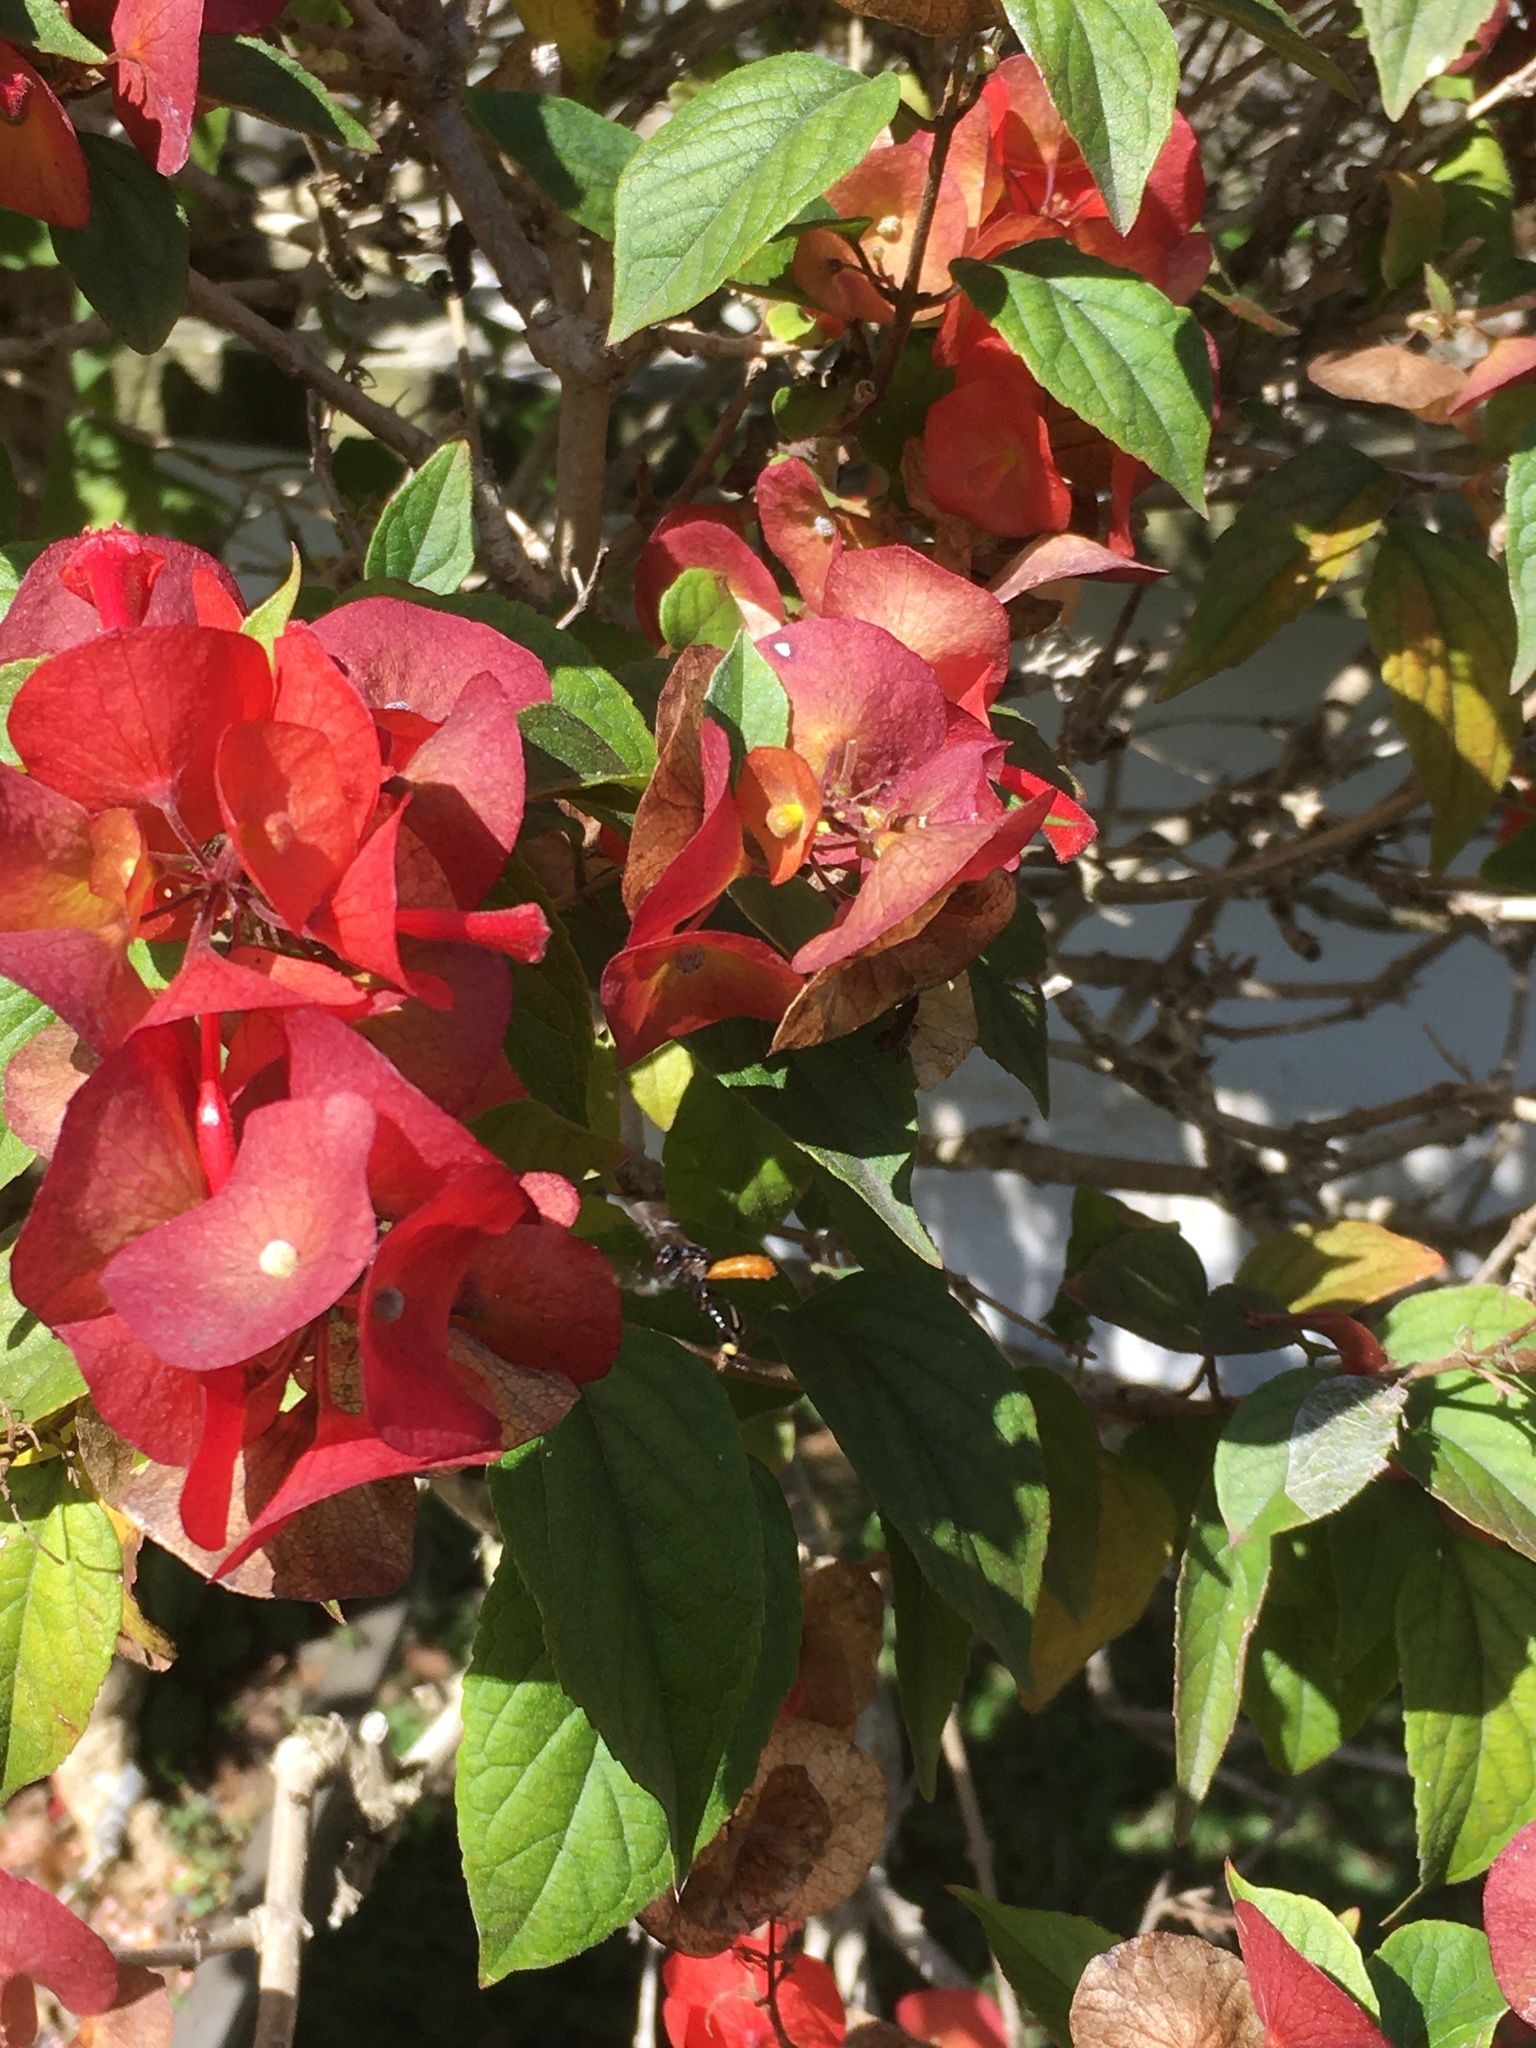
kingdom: Animalia
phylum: Arthropoda
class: Insecta
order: Hymenoptera
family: Apidae
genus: Trigona
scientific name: Trigona fulviventris
